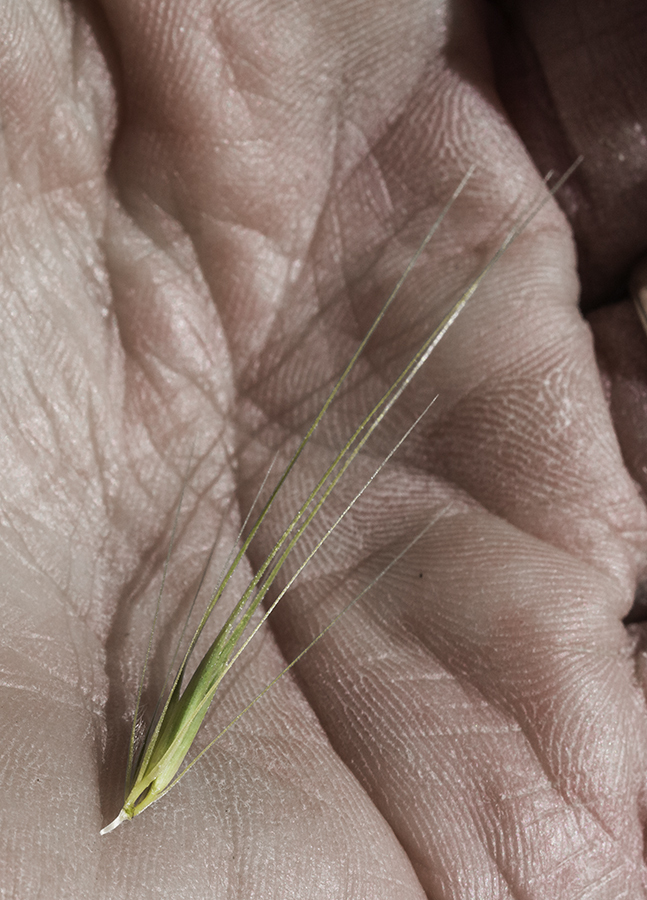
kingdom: Plantae
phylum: Tracheophyta
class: Liliopsida
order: Poales
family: Poaceae
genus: Hordeum
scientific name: Hordeum murinum
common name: Wall barley
